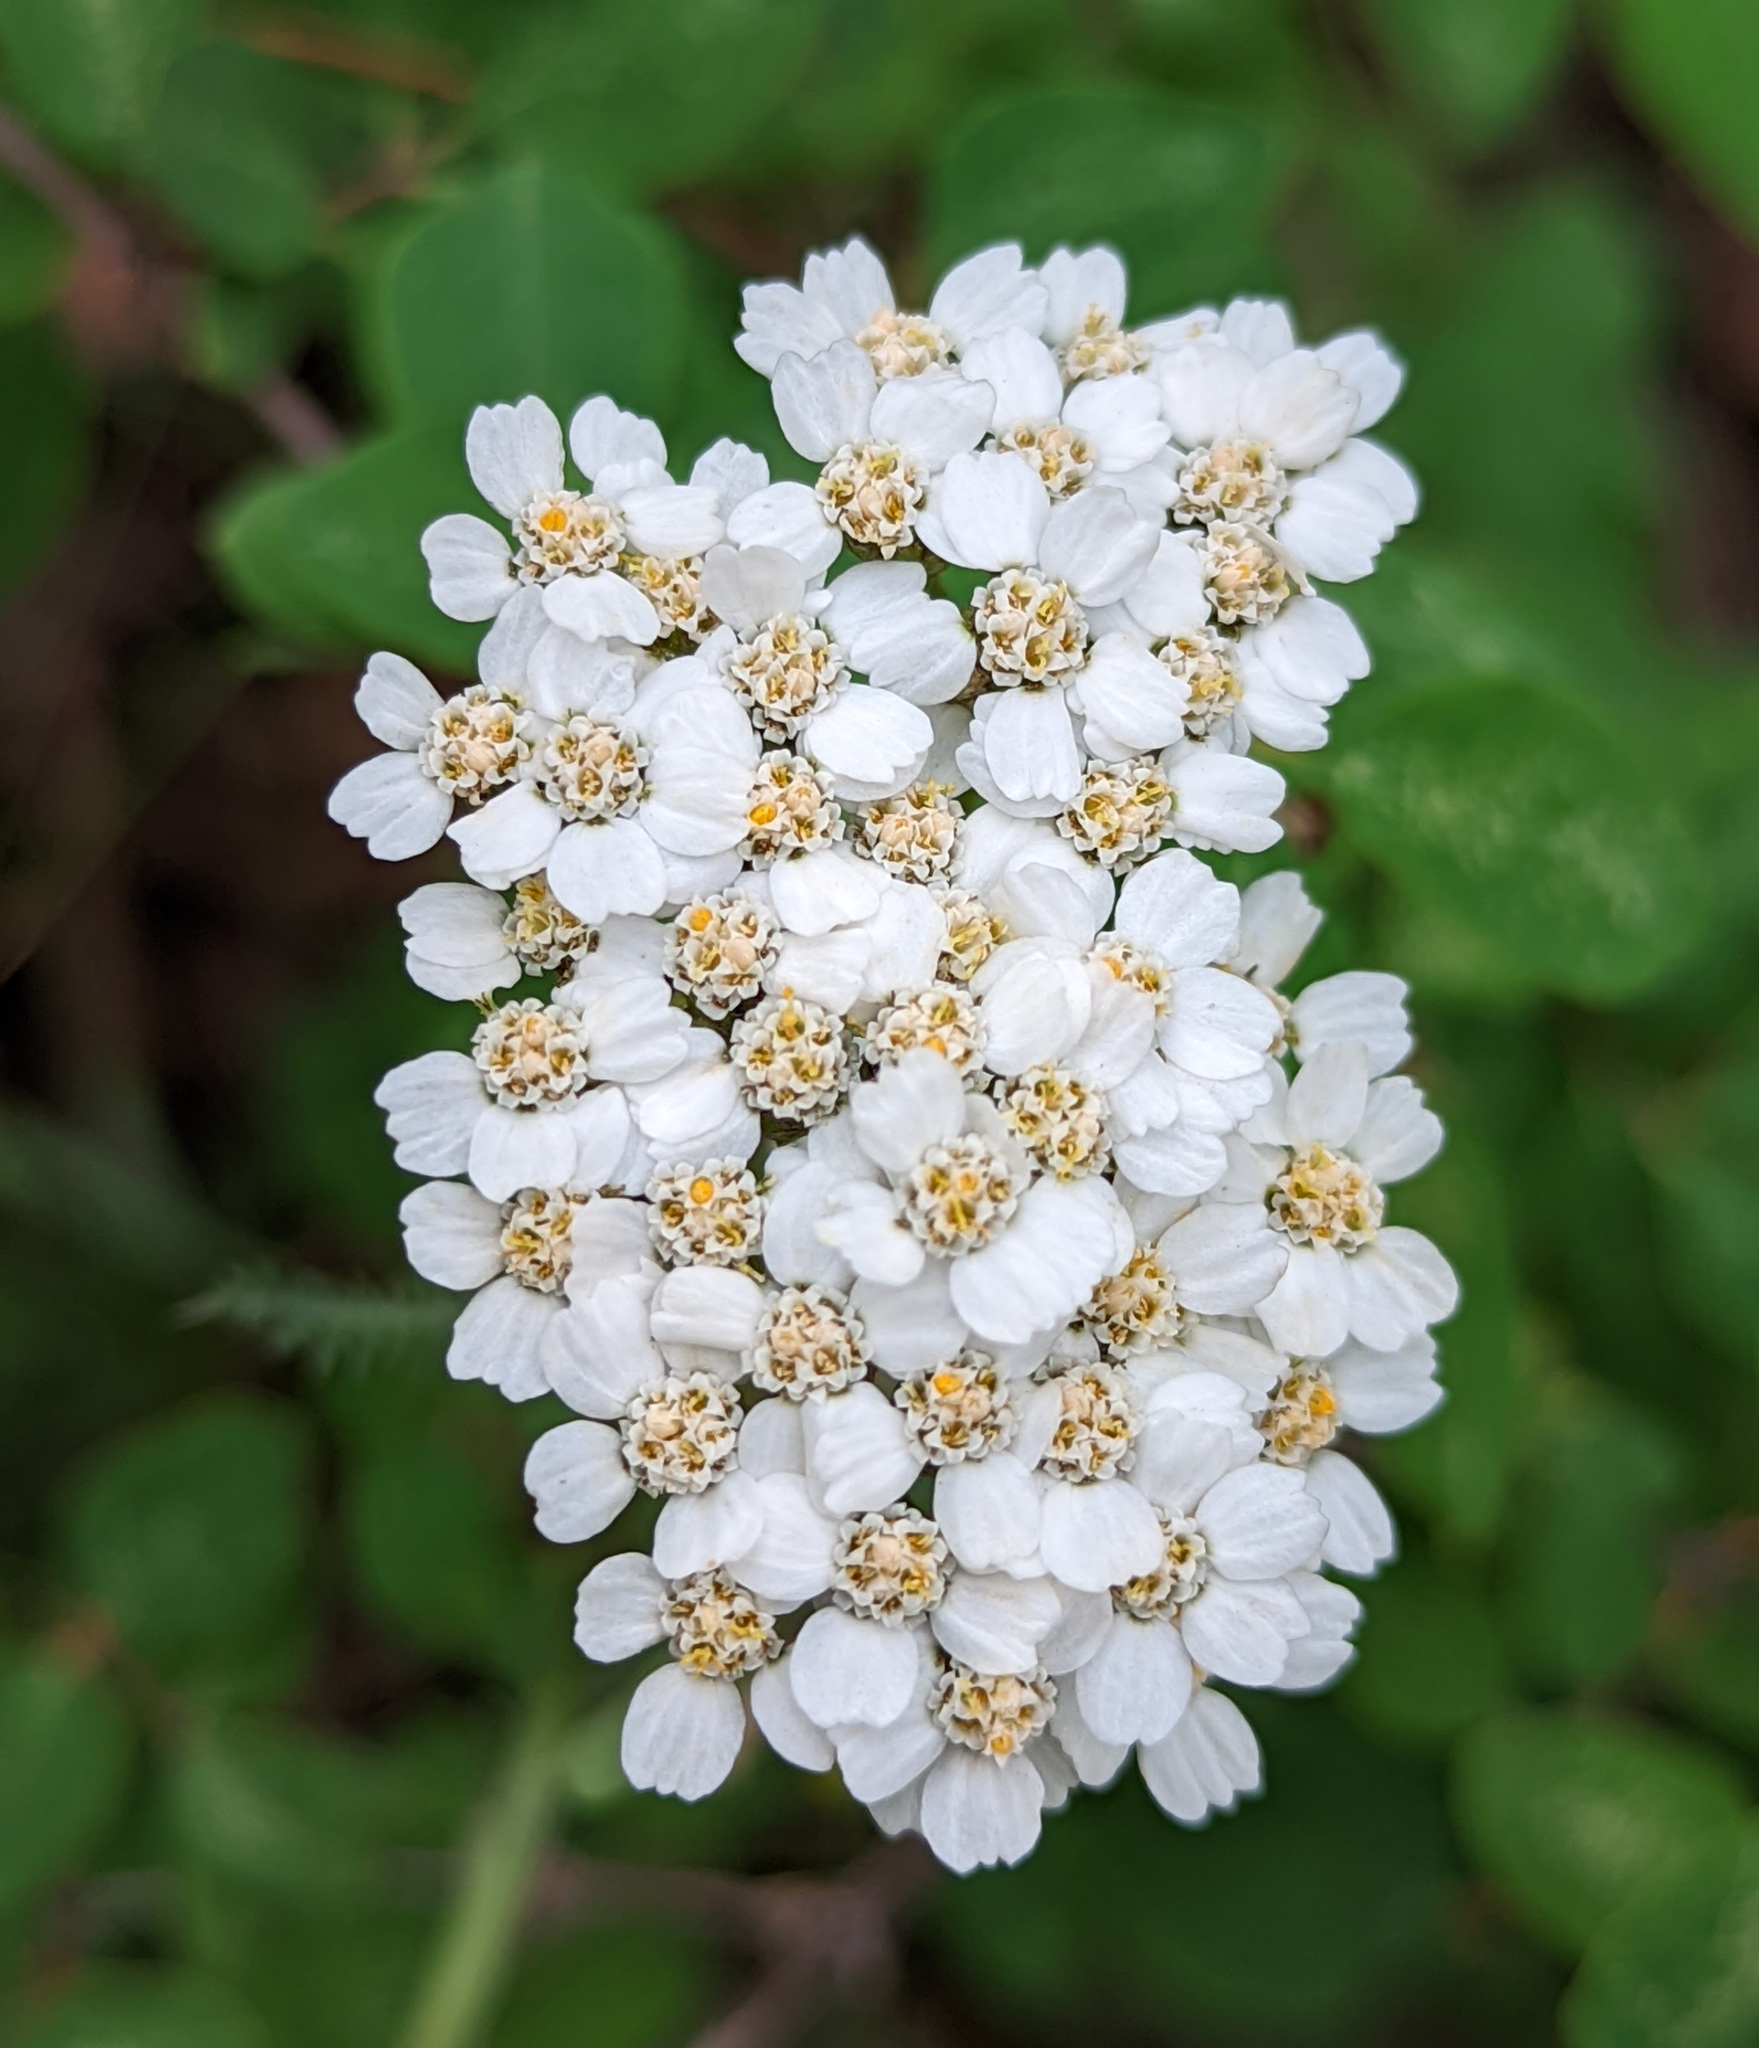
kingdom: Plantae
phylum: Tracheophyta
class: Magnoliopsida
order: Asterales
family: Asteraceae
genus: Achillea
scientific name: Achillea millefolium
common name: Yarrow
